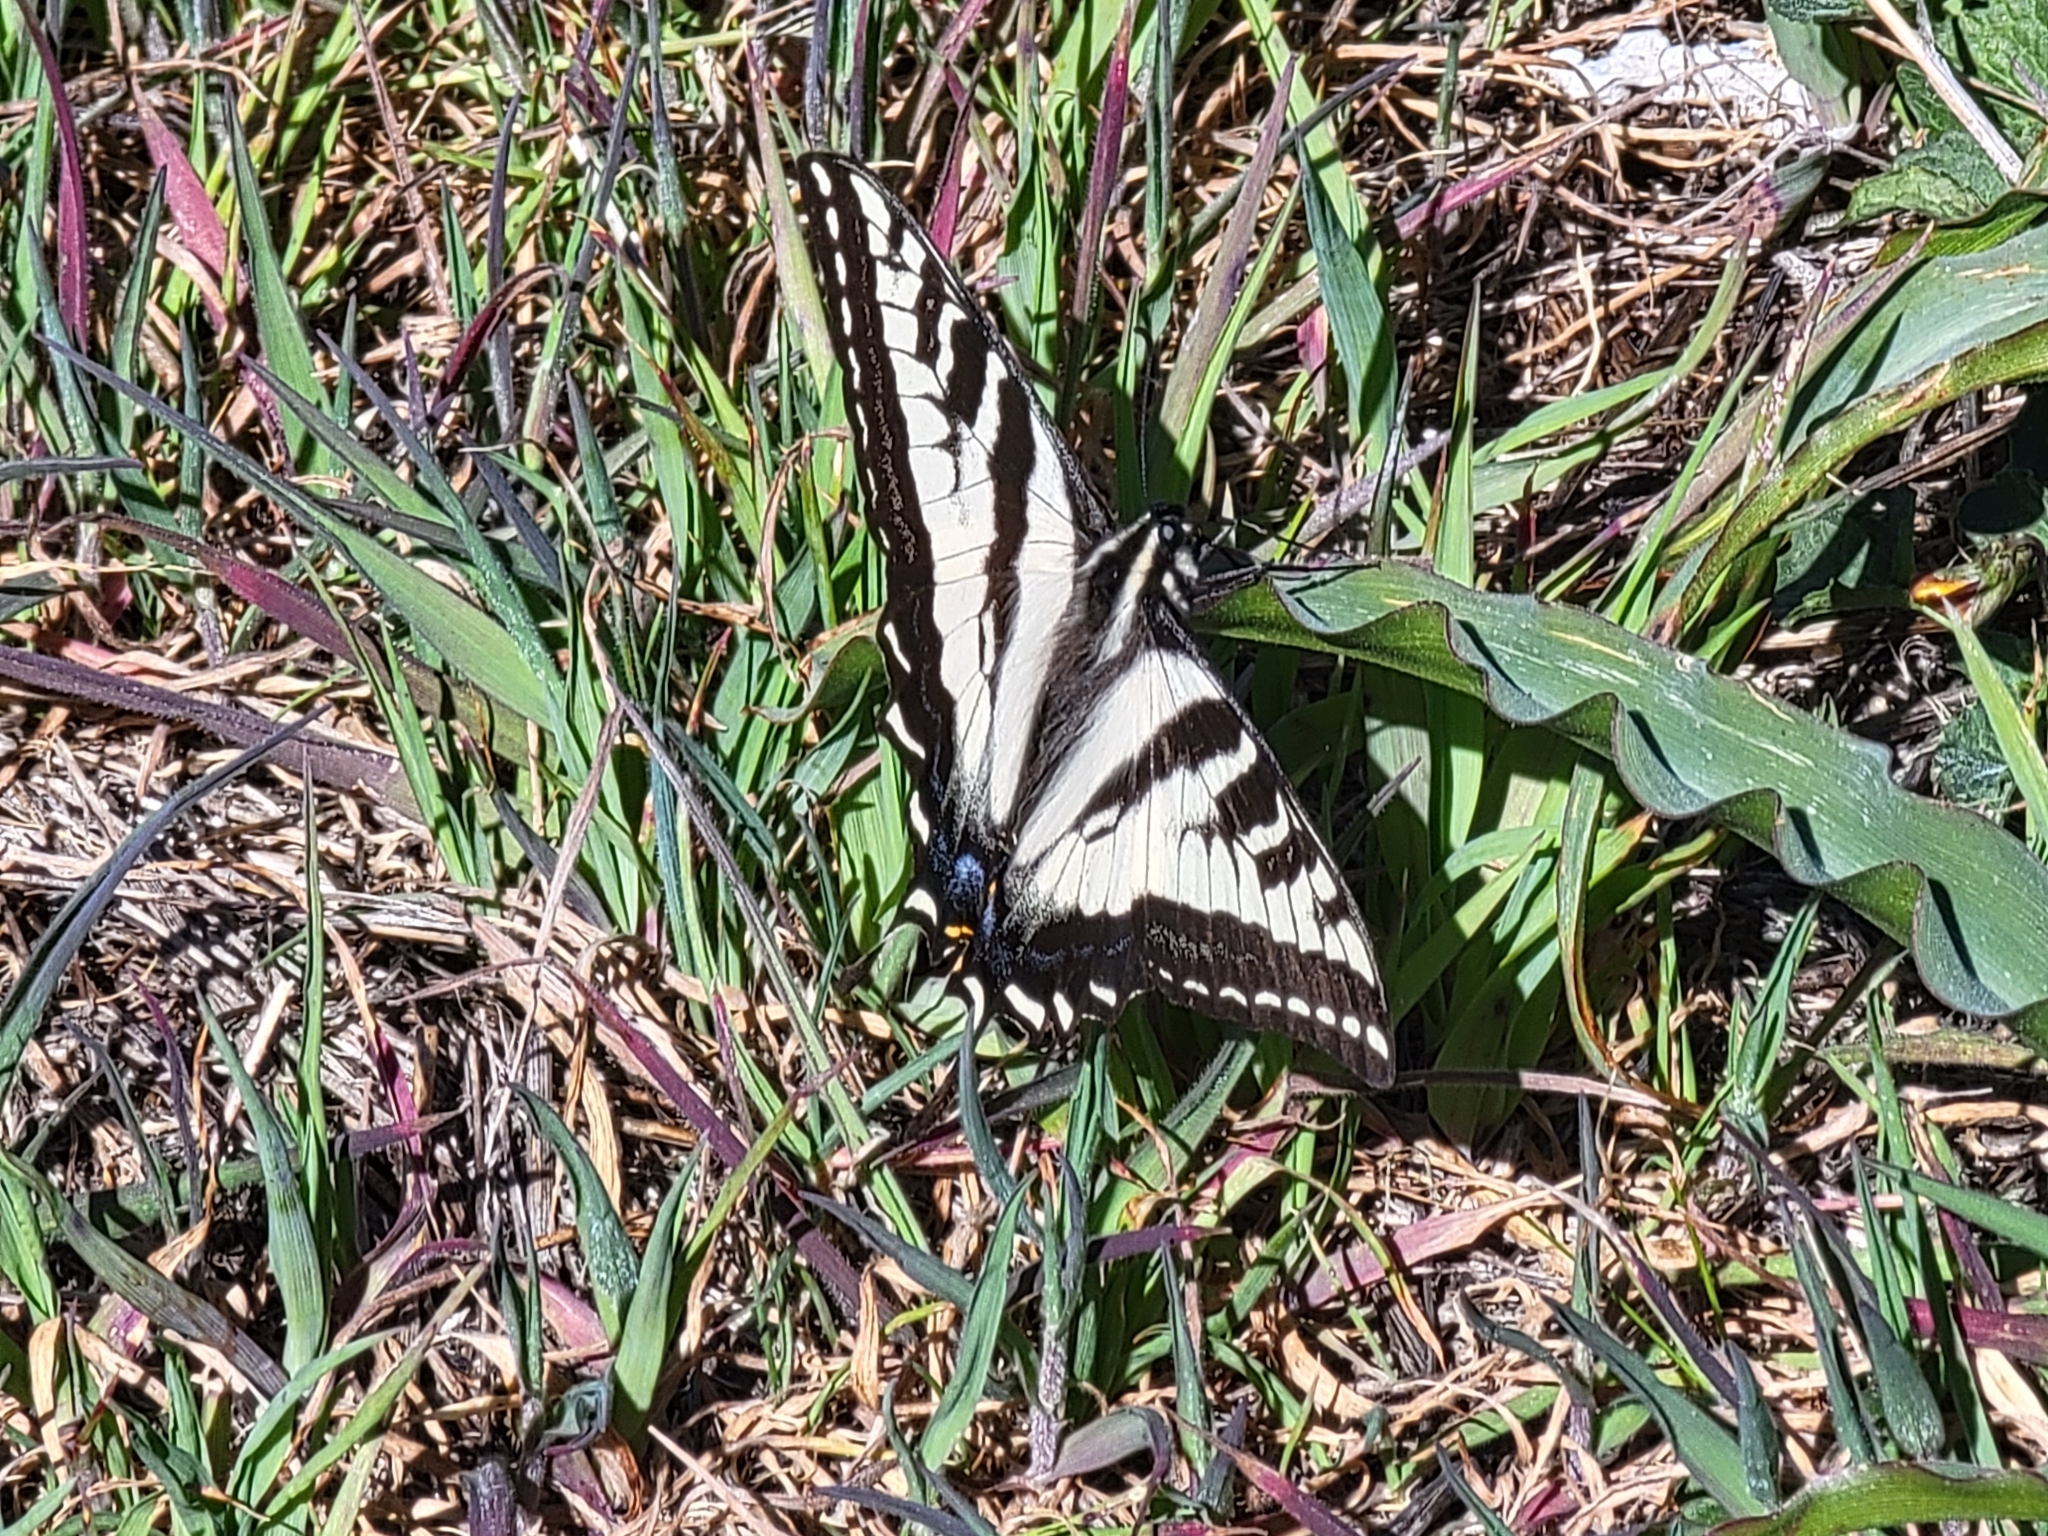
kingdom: Animalia
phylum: Arthropoda
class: Insecta
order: Lepidoptera
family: Papilionidae
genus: Papilio
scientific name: Papilio eurymedon
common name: Pale tiger swallowtail
